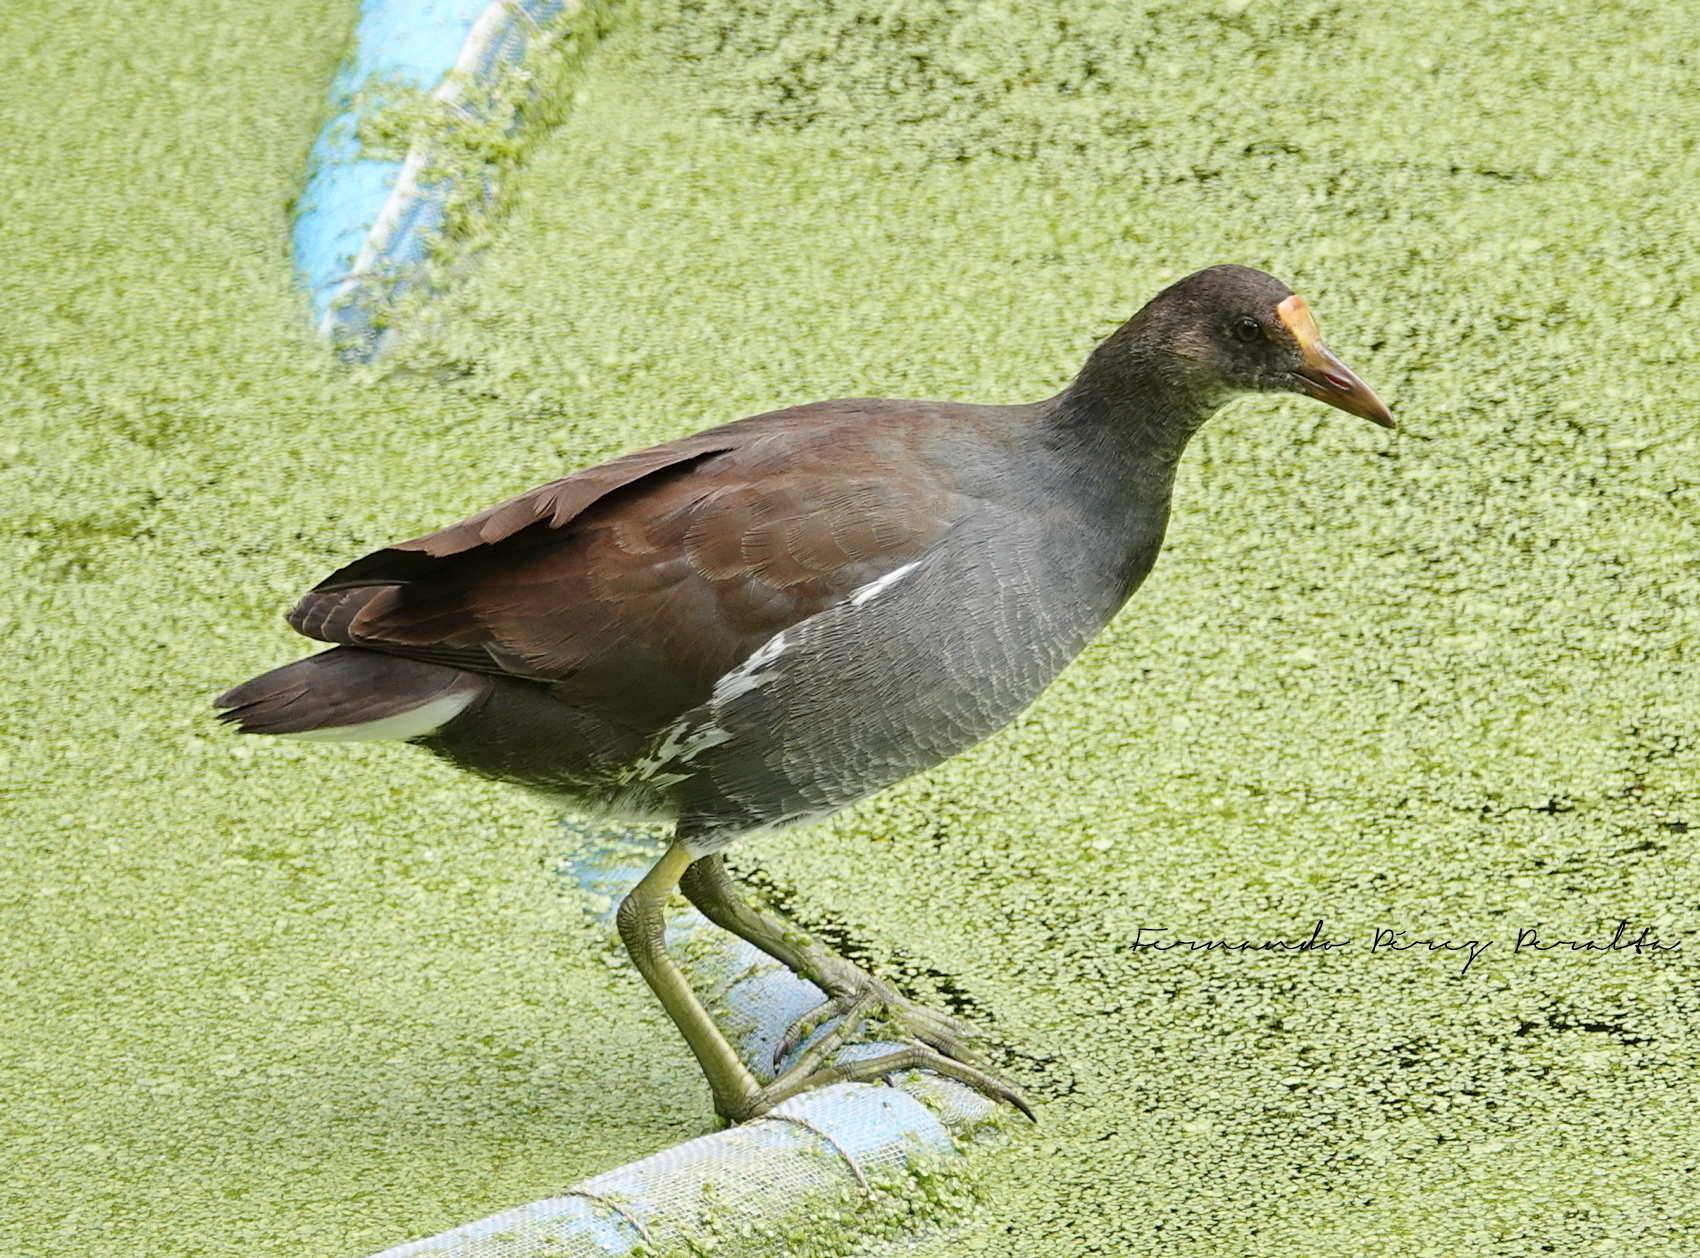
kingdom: Animalia
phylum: Chordata
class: Aves
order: Gruiformes
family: Rallidae
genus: Gallinula
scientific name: Gallinula chloropus
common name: Common moorhen
